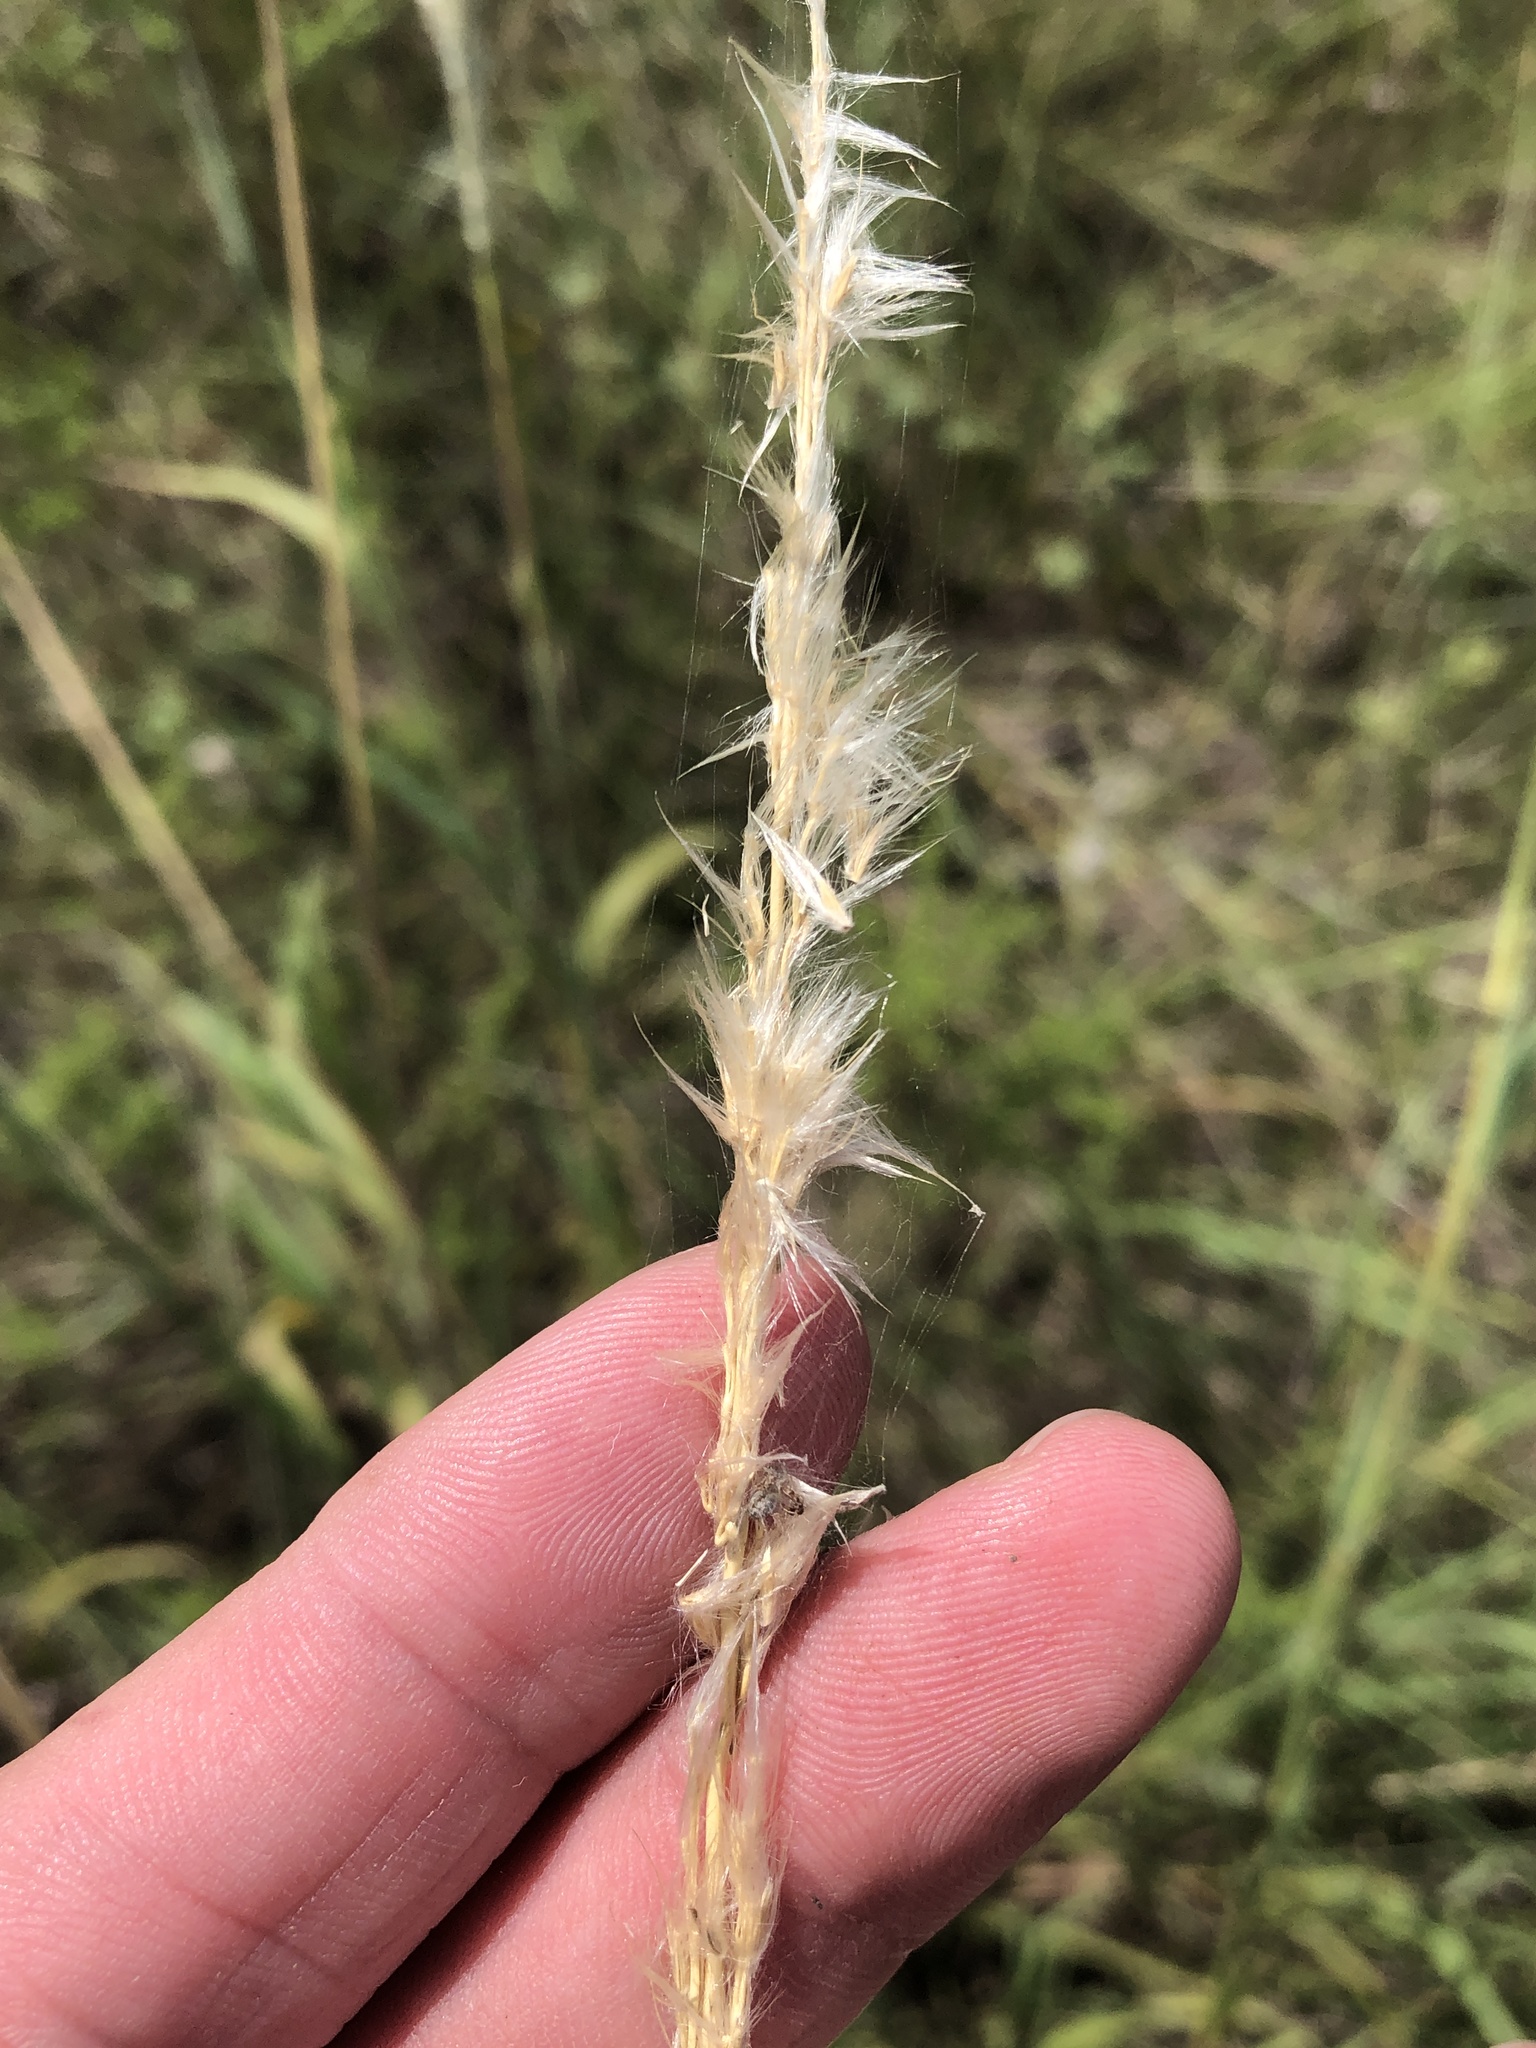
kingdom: Plantae
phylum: Tracheophyta
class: Liliopsida
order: Poales
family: Poaceae
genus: Bothriochloa
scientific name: Bothriochloa torreyana
